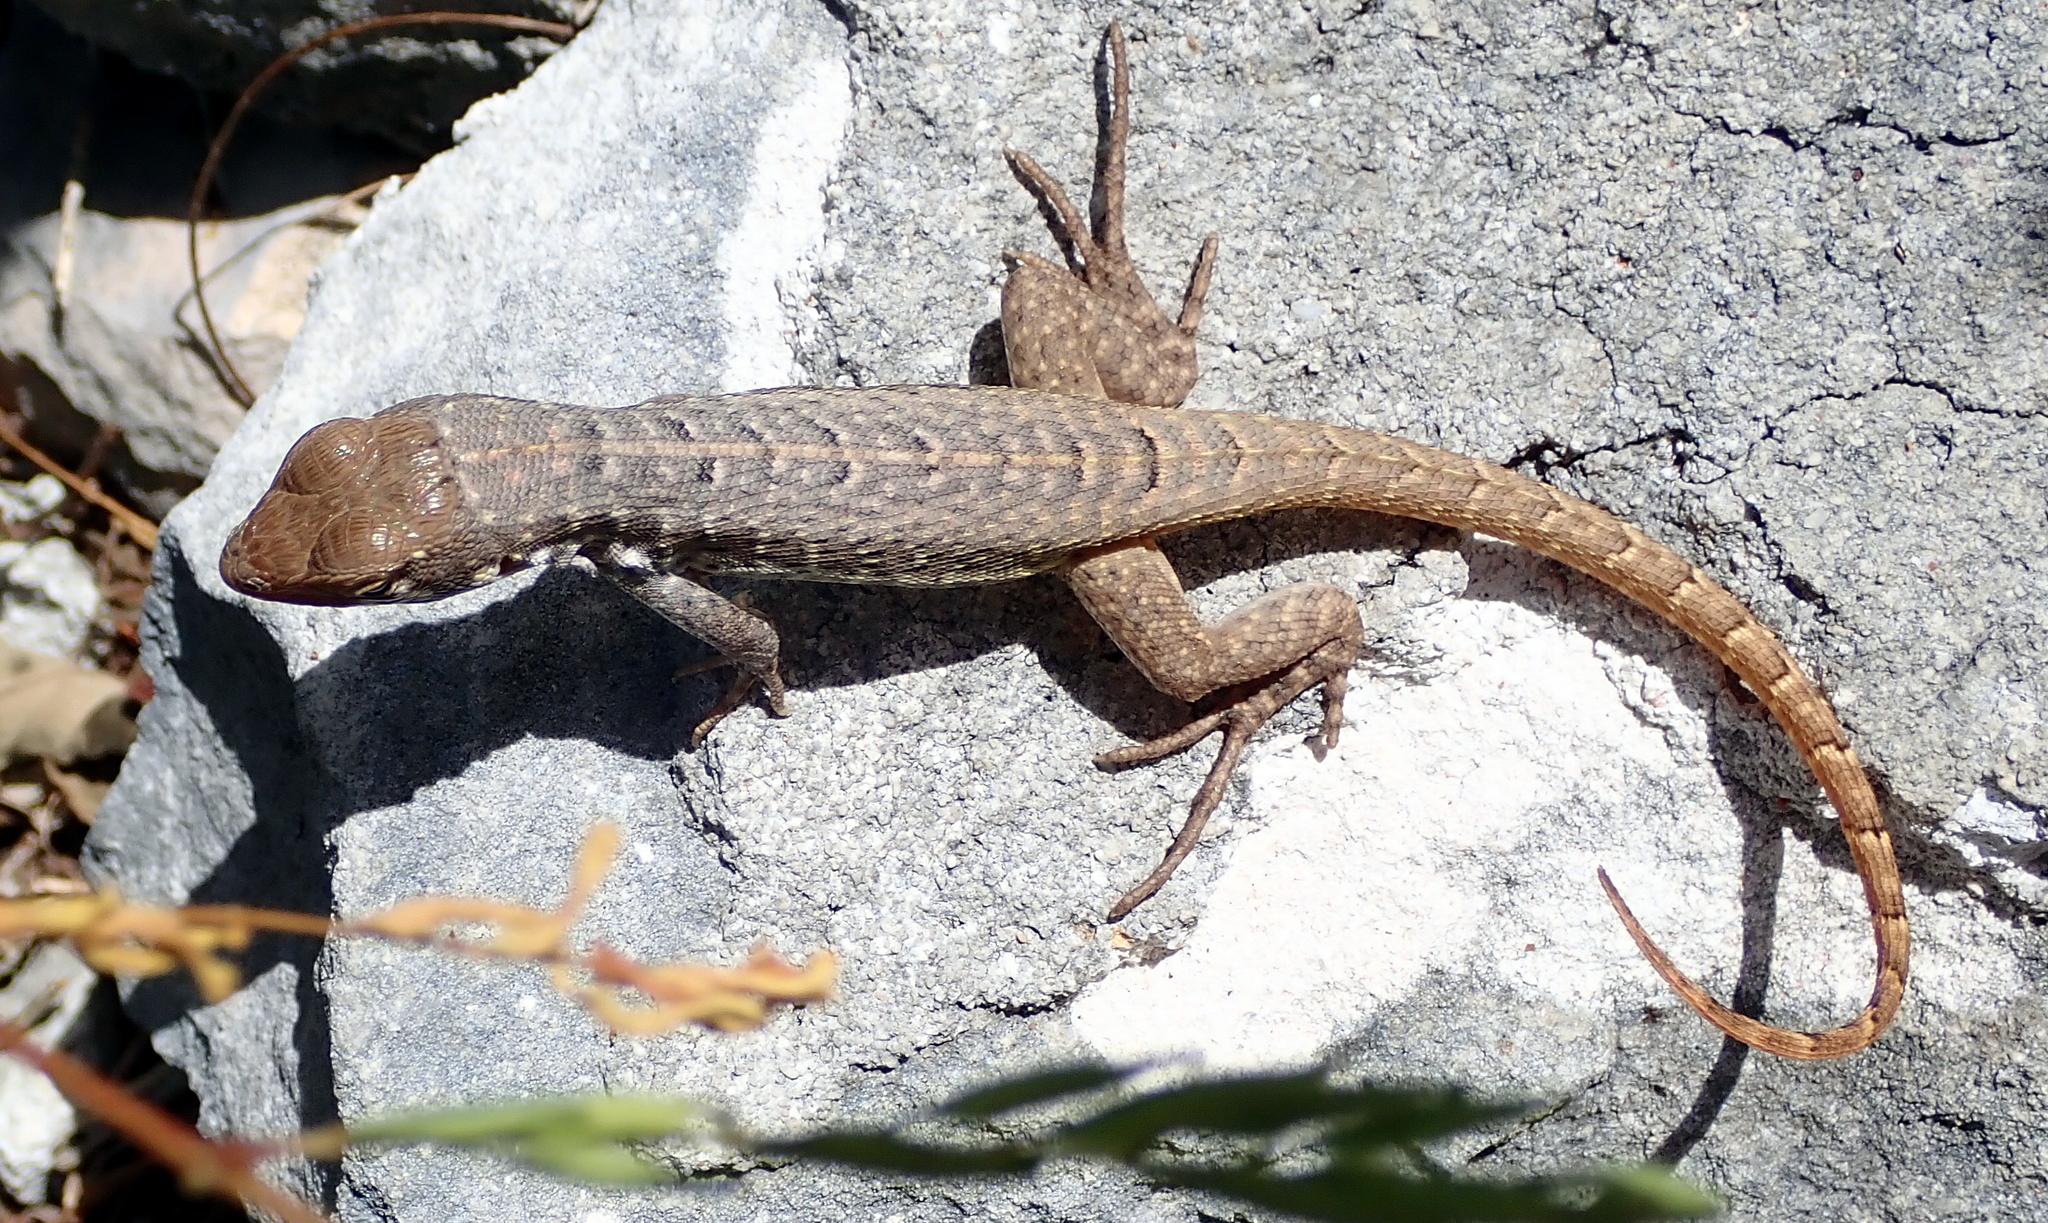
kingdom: Animalia
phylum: Chordata
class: Squamata
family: Leiocephalidae
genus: Leiocephalus
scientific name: Leiocephalus loxogrammus
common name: Rum cay curlytail lizard
